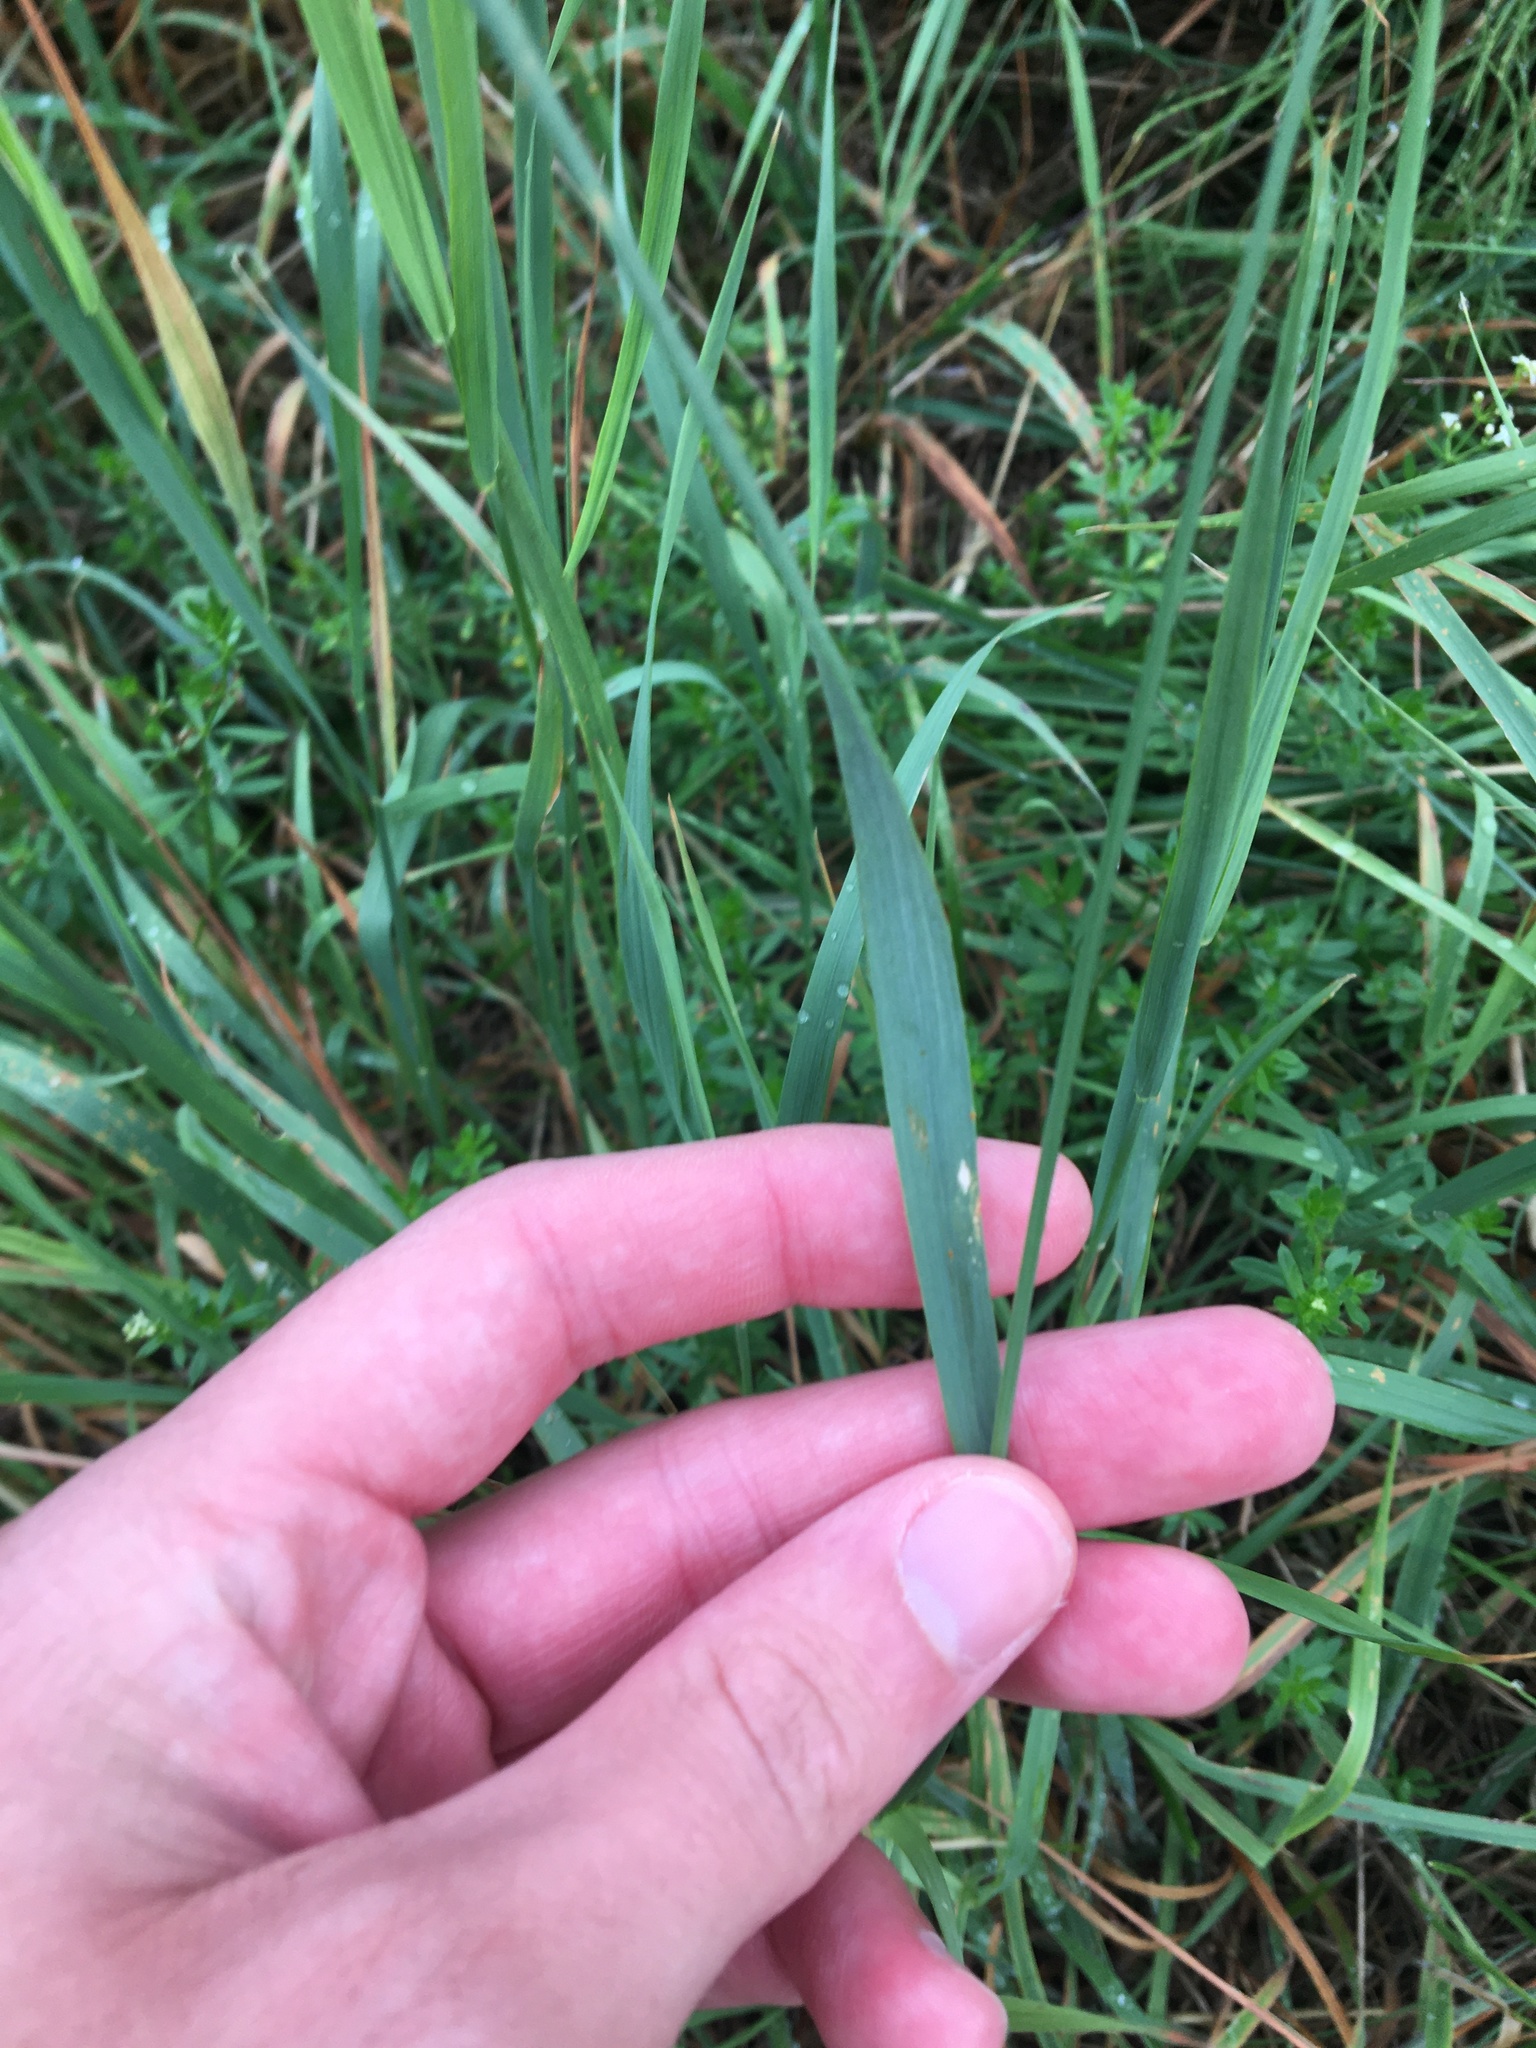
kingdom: Plantae
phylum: Tracheophyta
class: Liliopsida
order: Poales
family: Poaceae
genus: Arrhenatherum
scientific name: Arrhenatherum elatius
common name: Tall oatgrass
